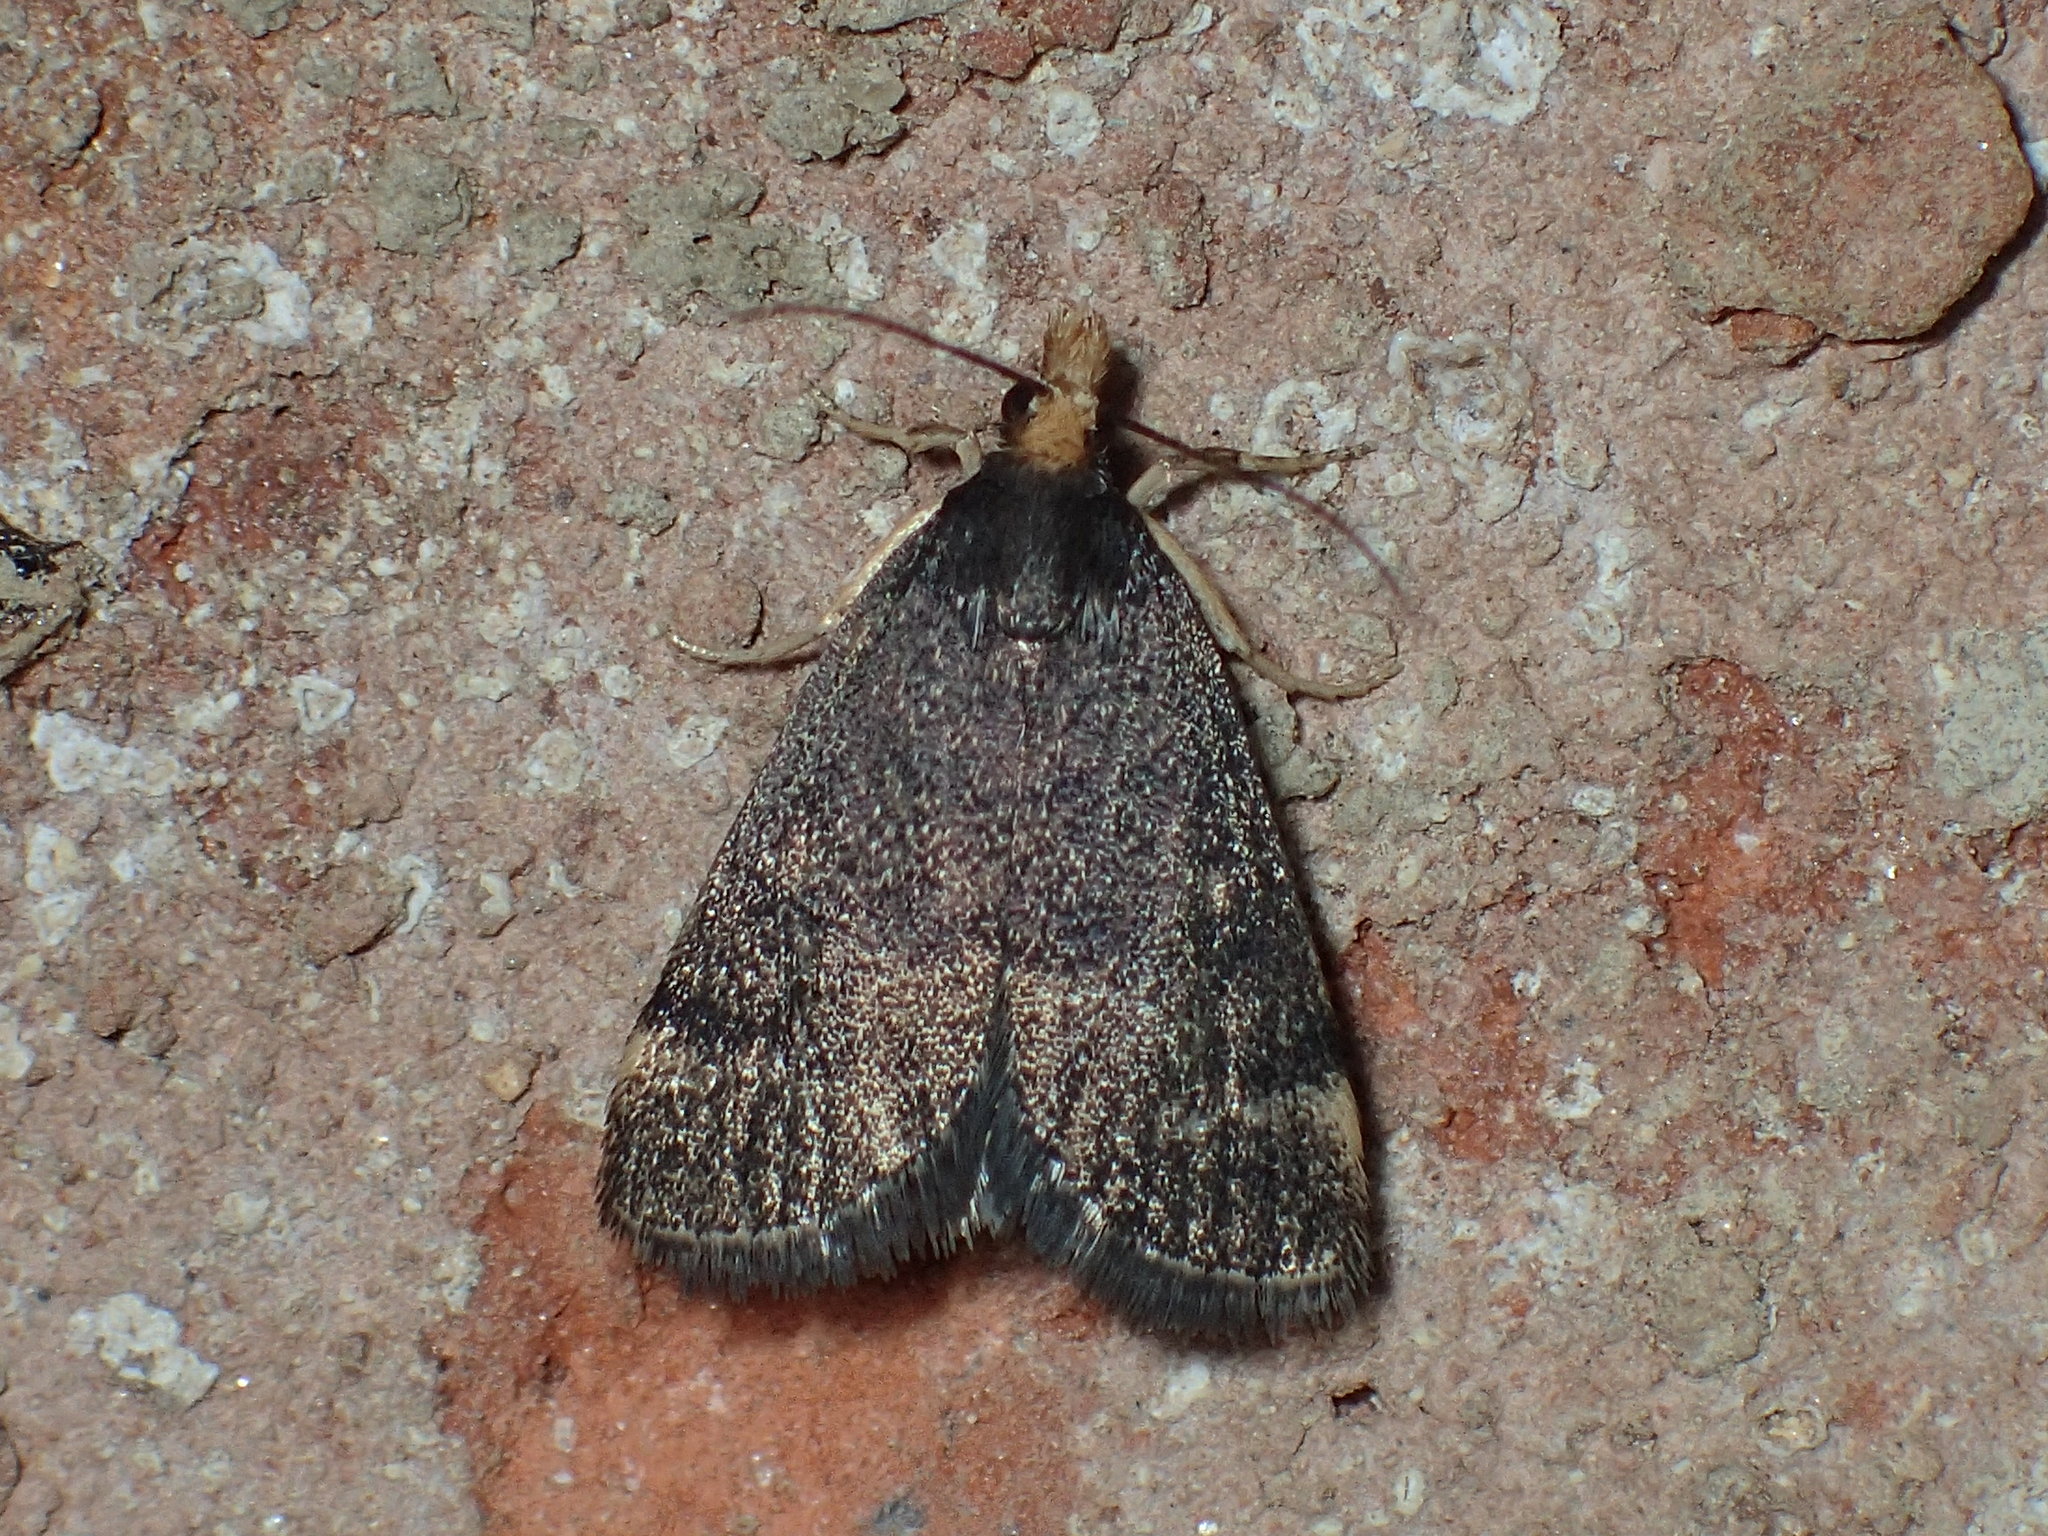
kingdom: Animalia
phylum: Arthropoda
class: Insecta
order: Lepidoptera
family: Crambidae
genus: Pyrausta
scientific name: Pyrausta merrickalis
